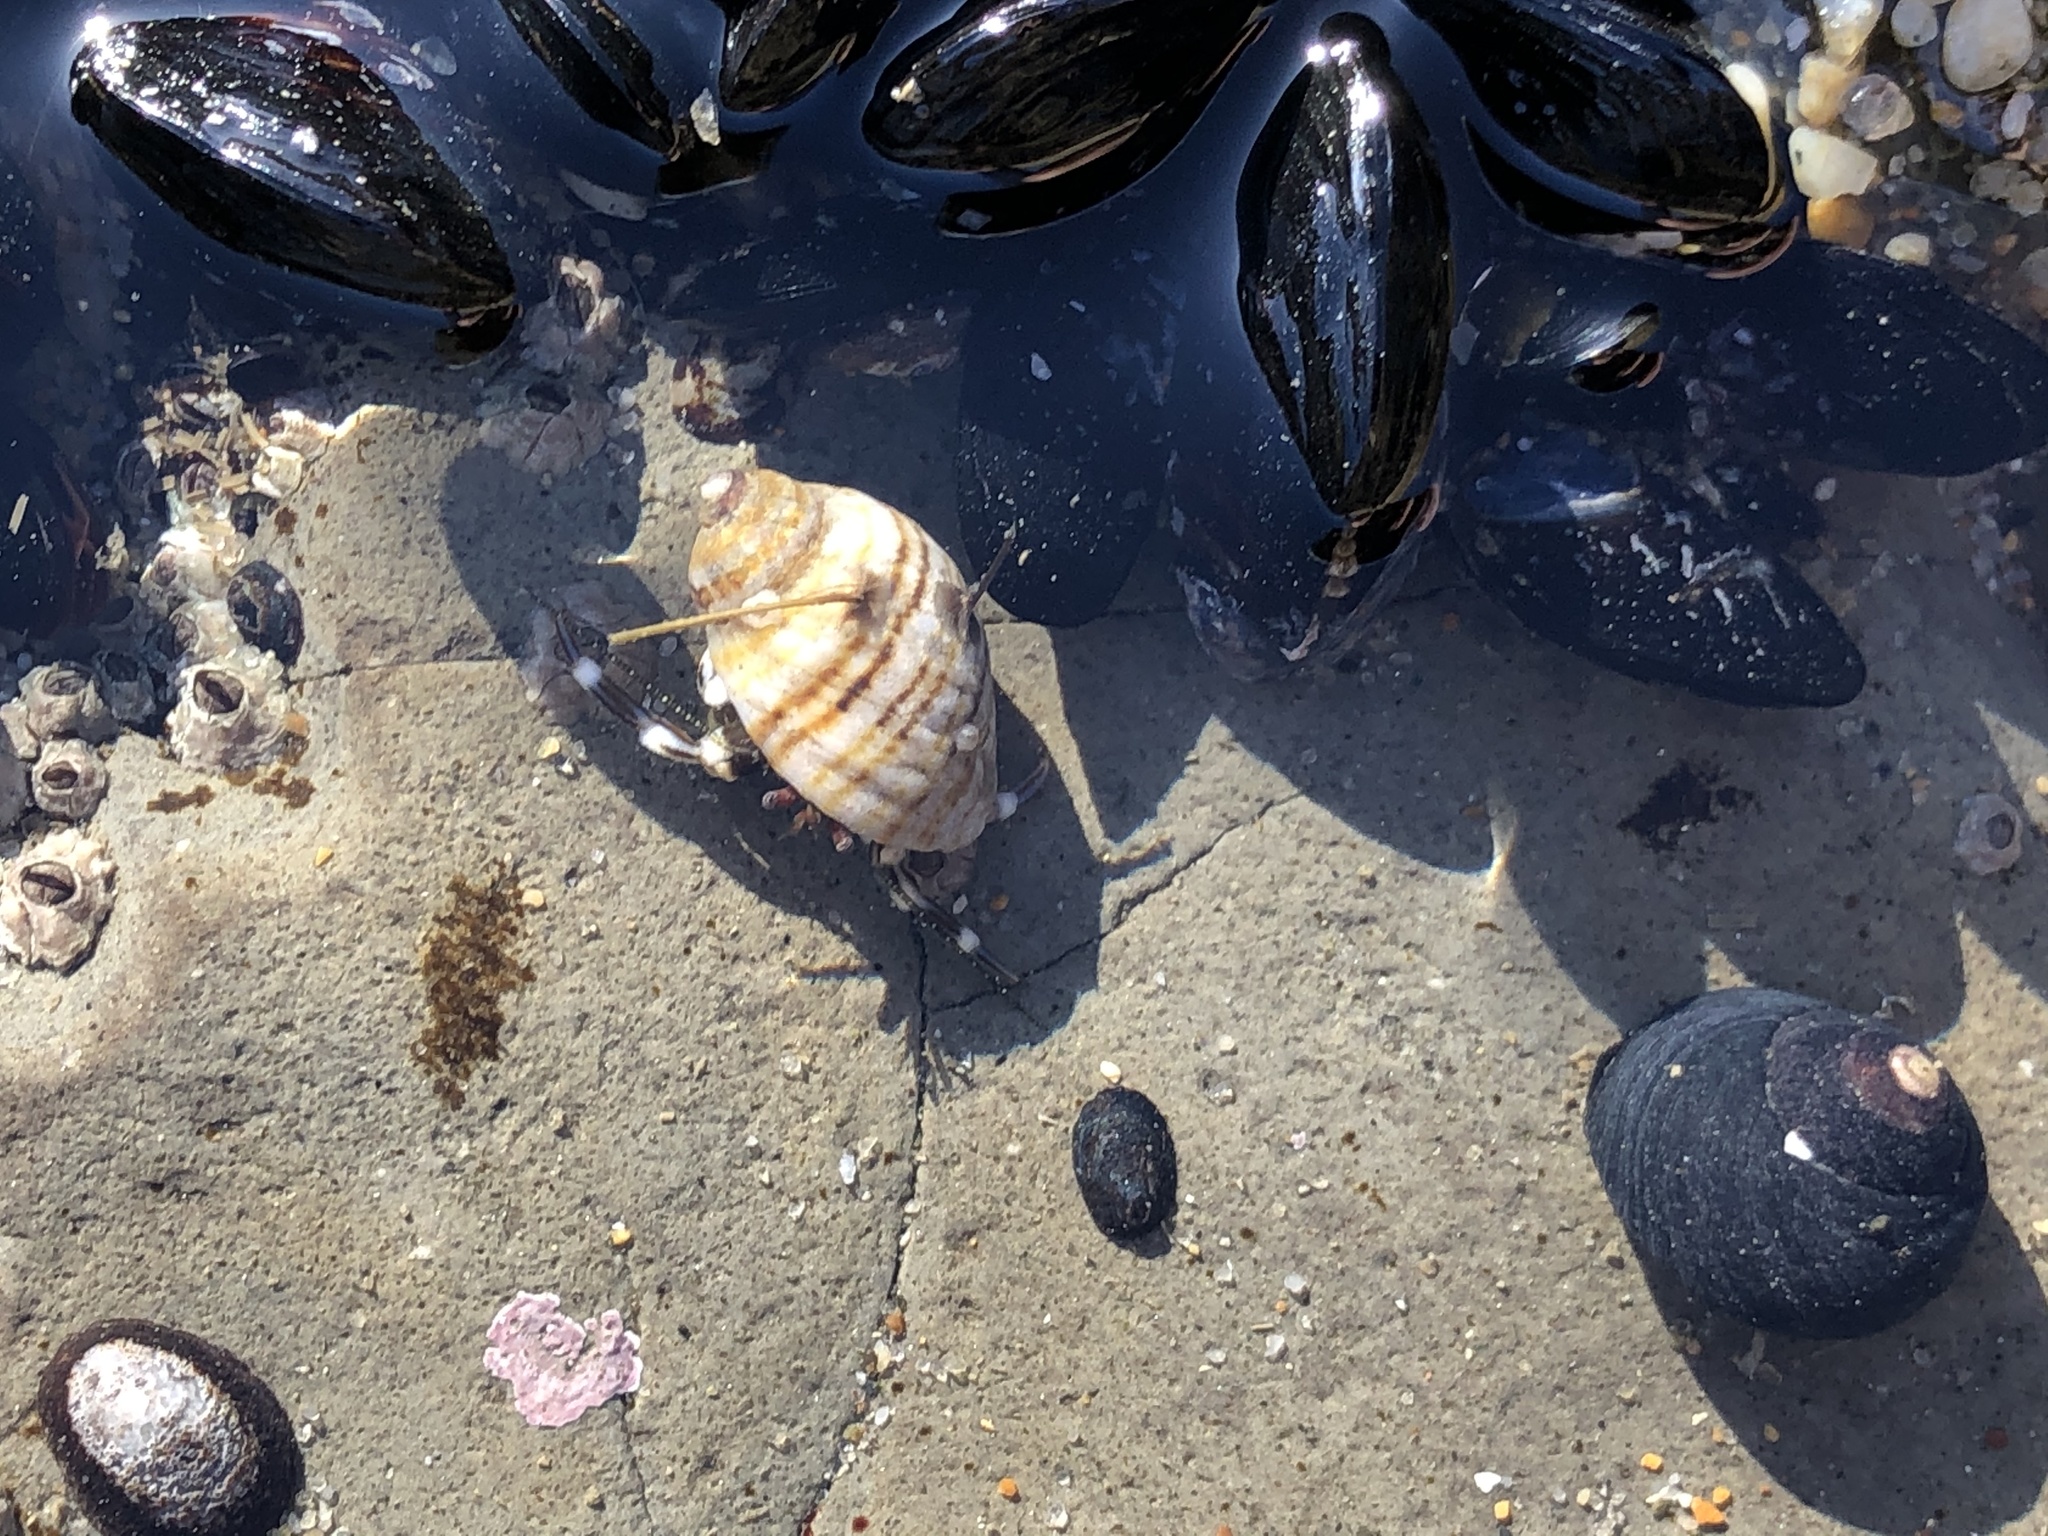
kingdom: Animalia
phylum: Mollusca
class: Gastropoda
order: Neogastropoda
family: Muricidae
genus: Nucella
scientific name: Nucella ostrina
